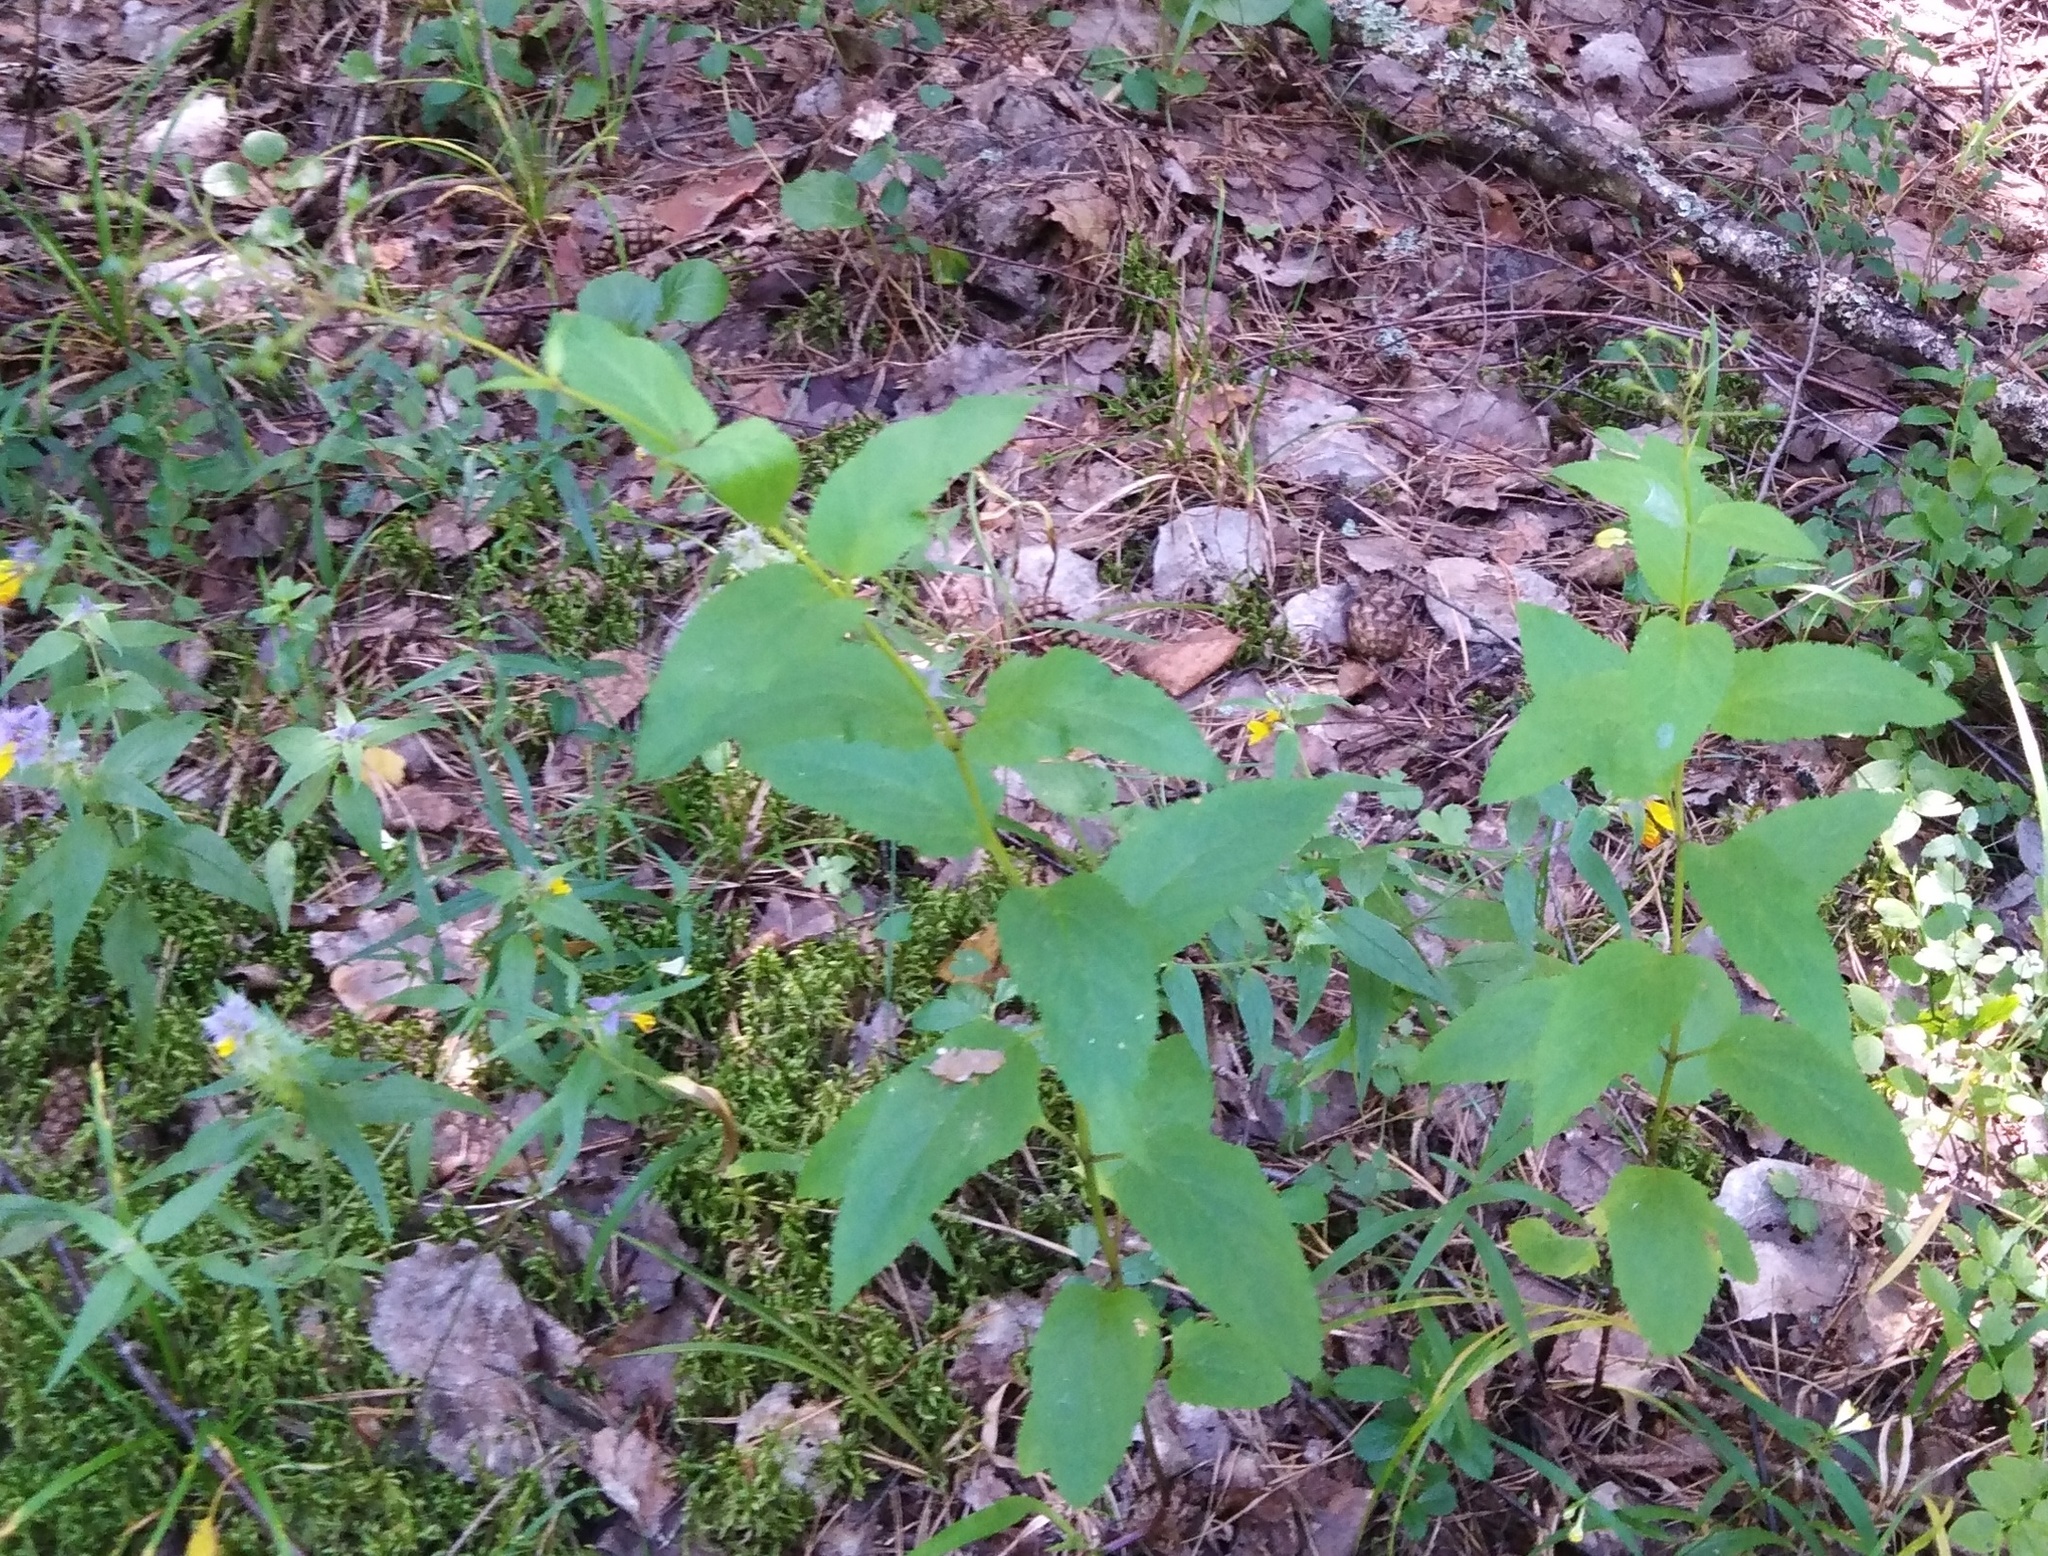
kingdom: Plantae
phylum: Tracheophyta
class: Magnoliopsida
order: Lamiales
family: Scrophulariaceae
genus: Scrophularia
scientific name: Scrophularia nodosa
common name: Common figwort
